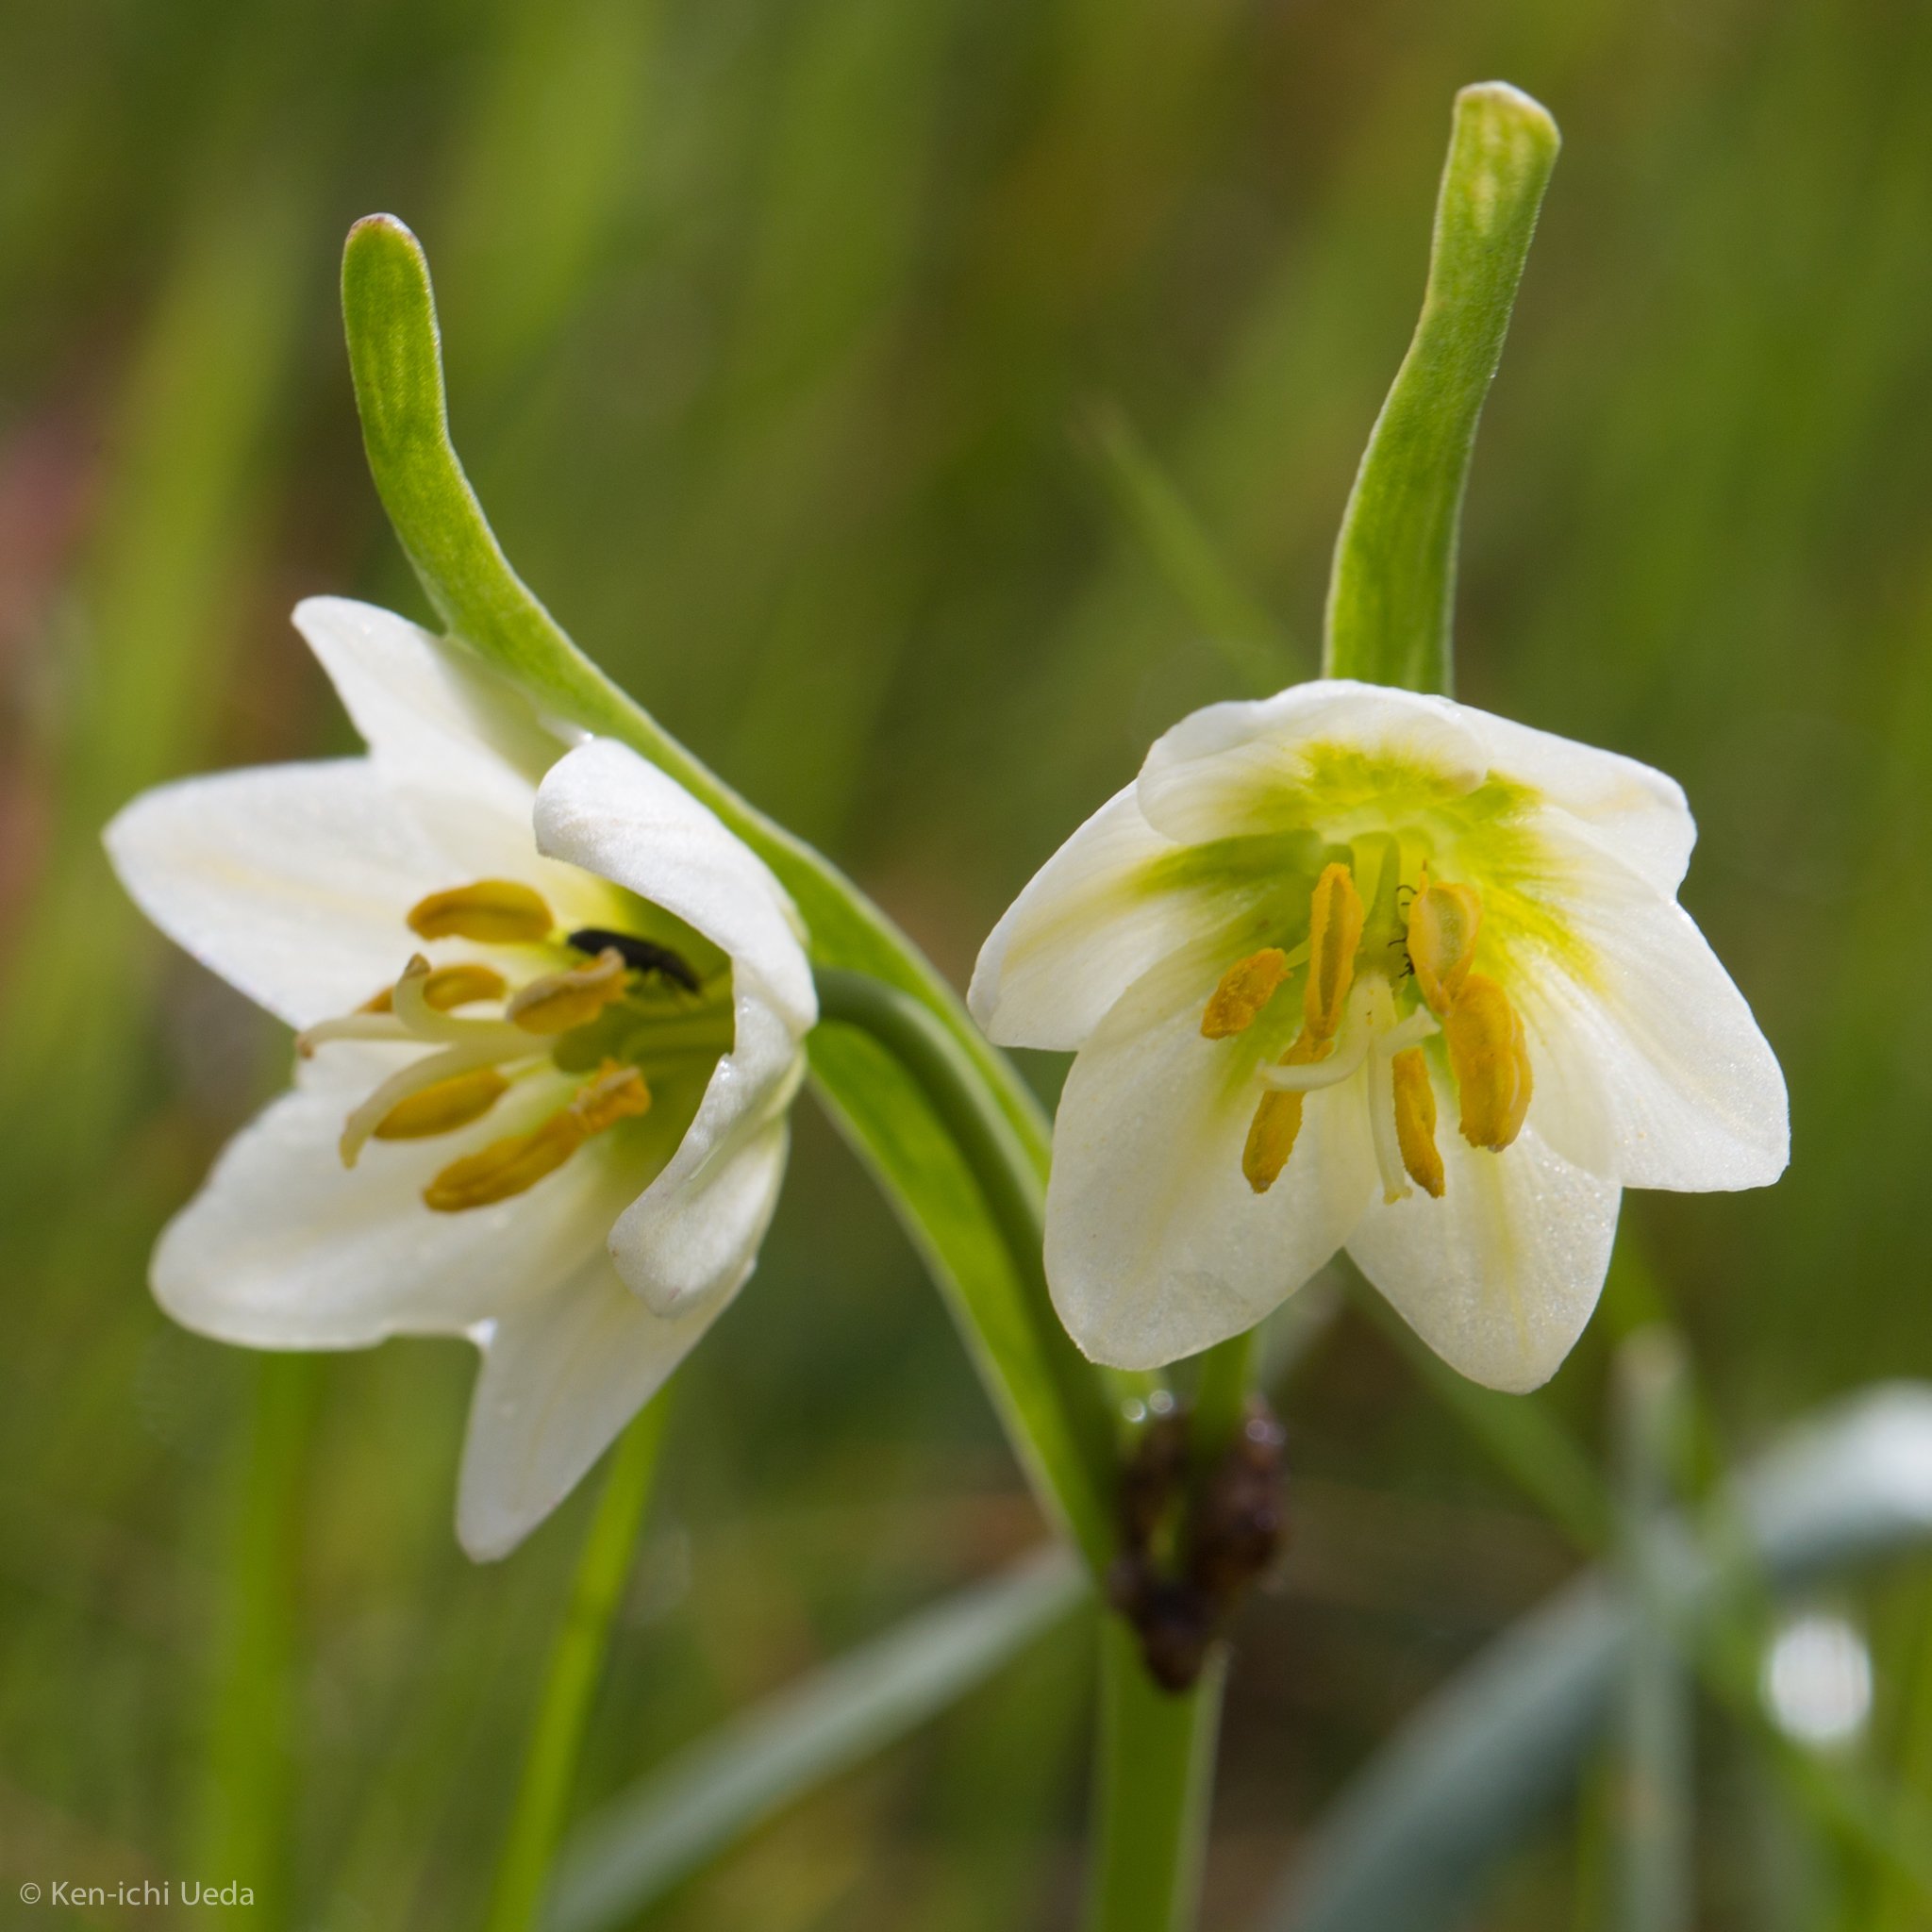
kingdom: Plantae
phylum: Tracheophyta
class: Liliopsida
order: Liliales
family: Liliaceae
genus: Fritillaria
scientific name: Fritillaria liliacea
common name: Fragrant fritillary
